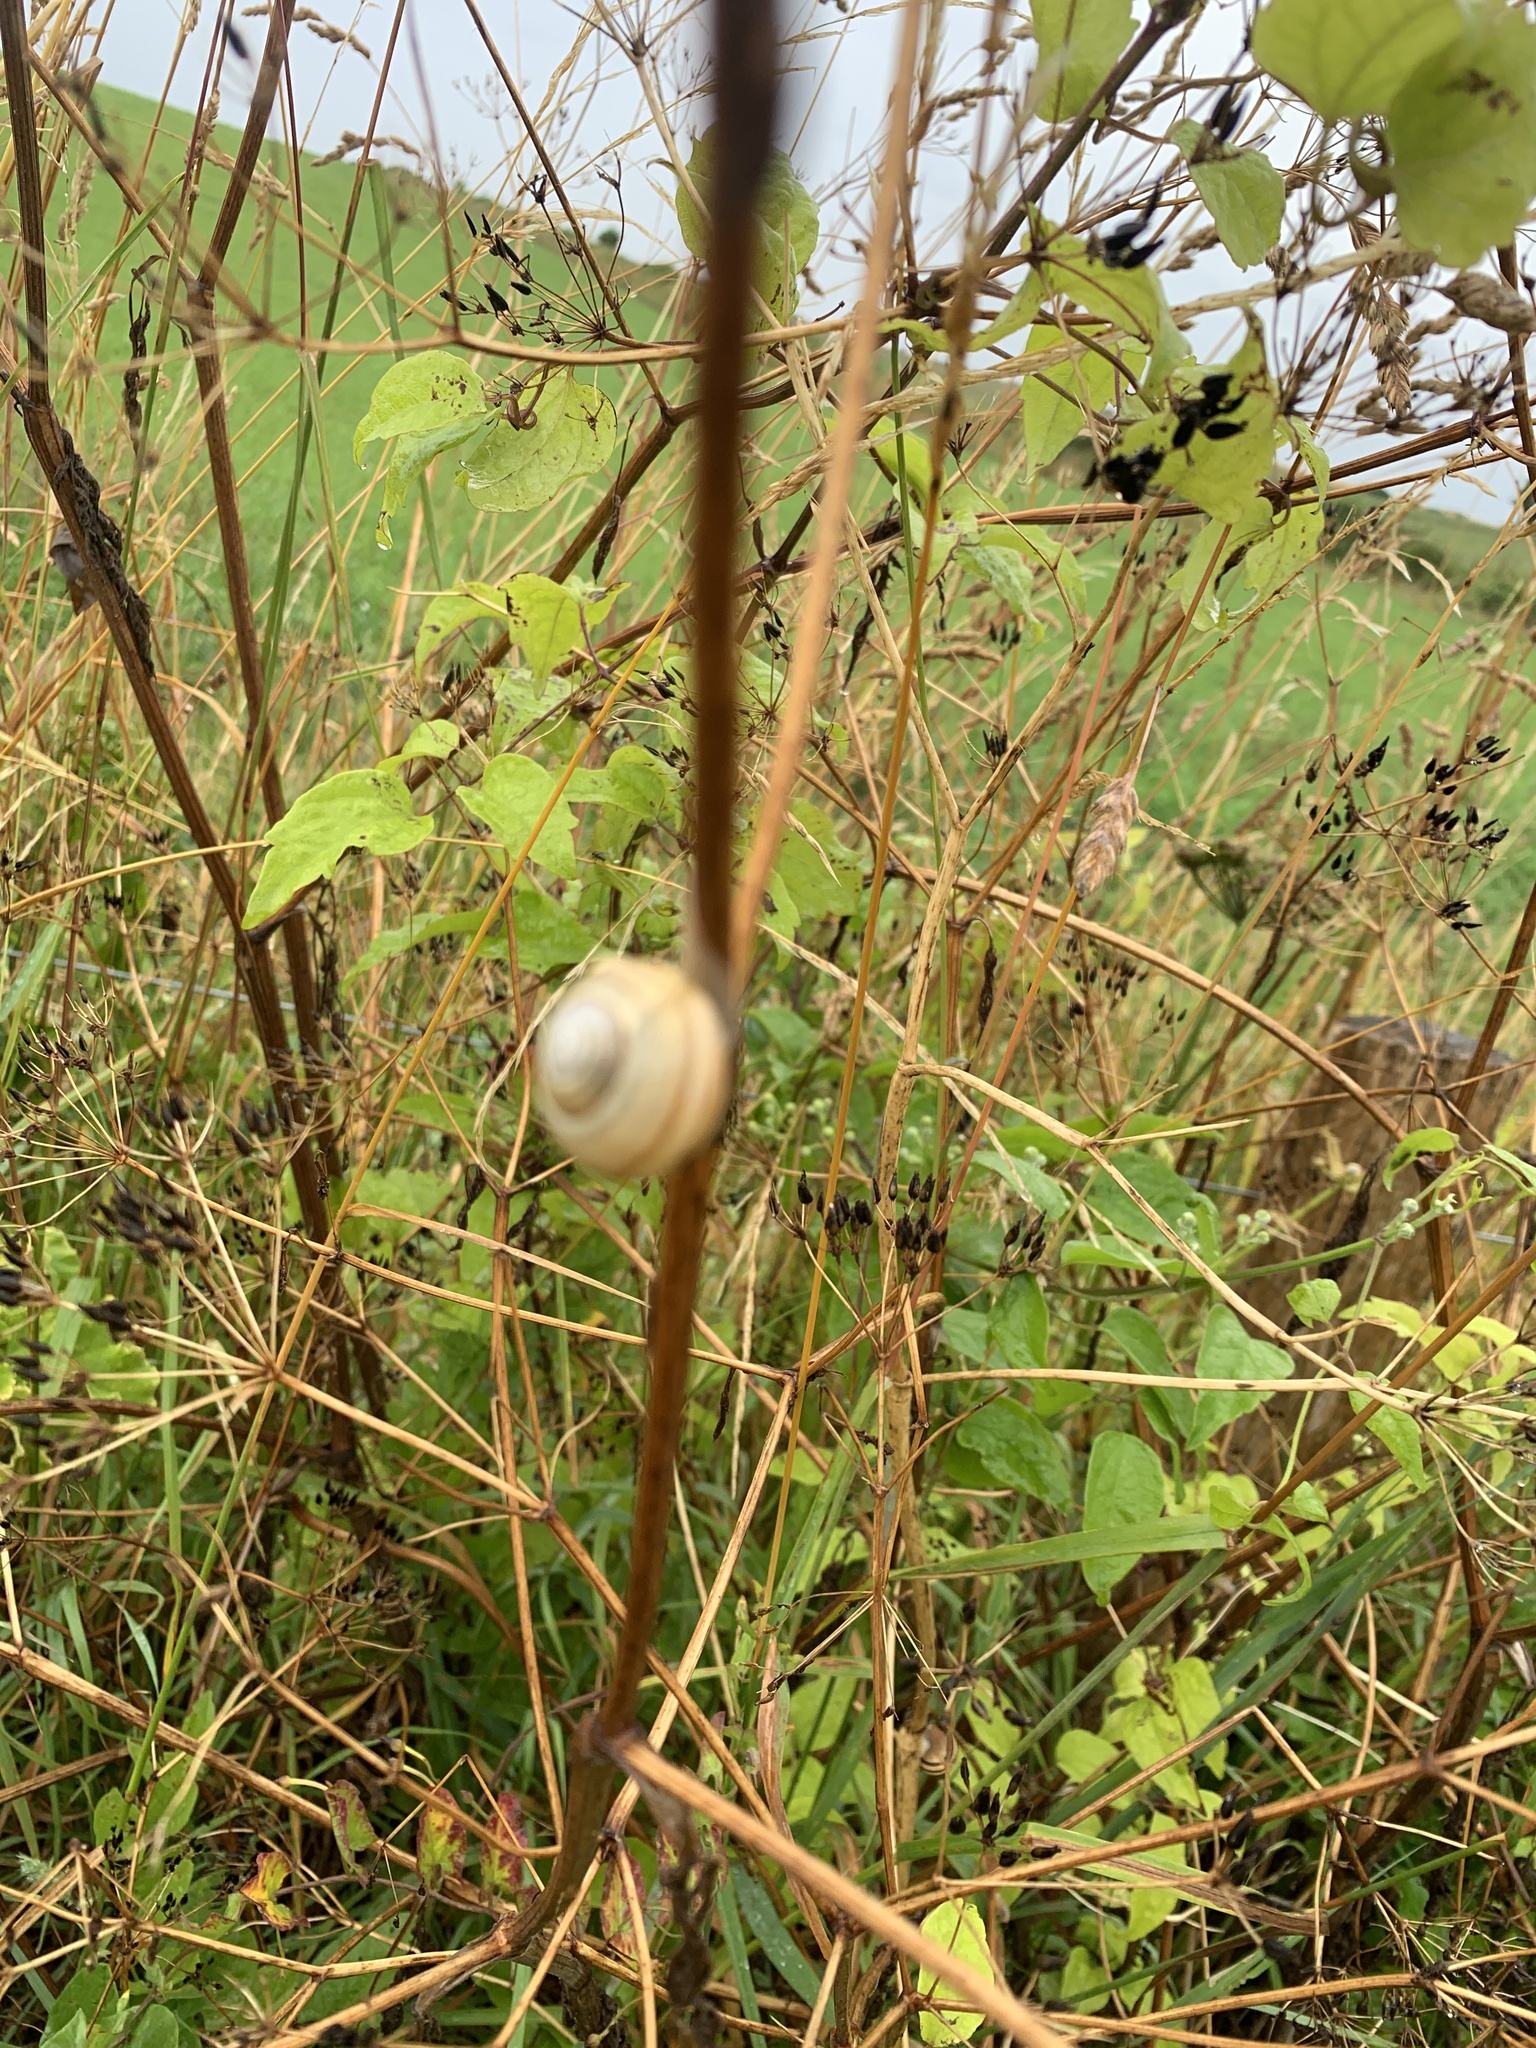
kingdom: Animalia
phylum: Mollusca
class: Gastropoda
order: Stylommatophora
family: Hygromiidae
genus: Monacha
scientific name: Monacha cantiana
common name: Kentish snail
